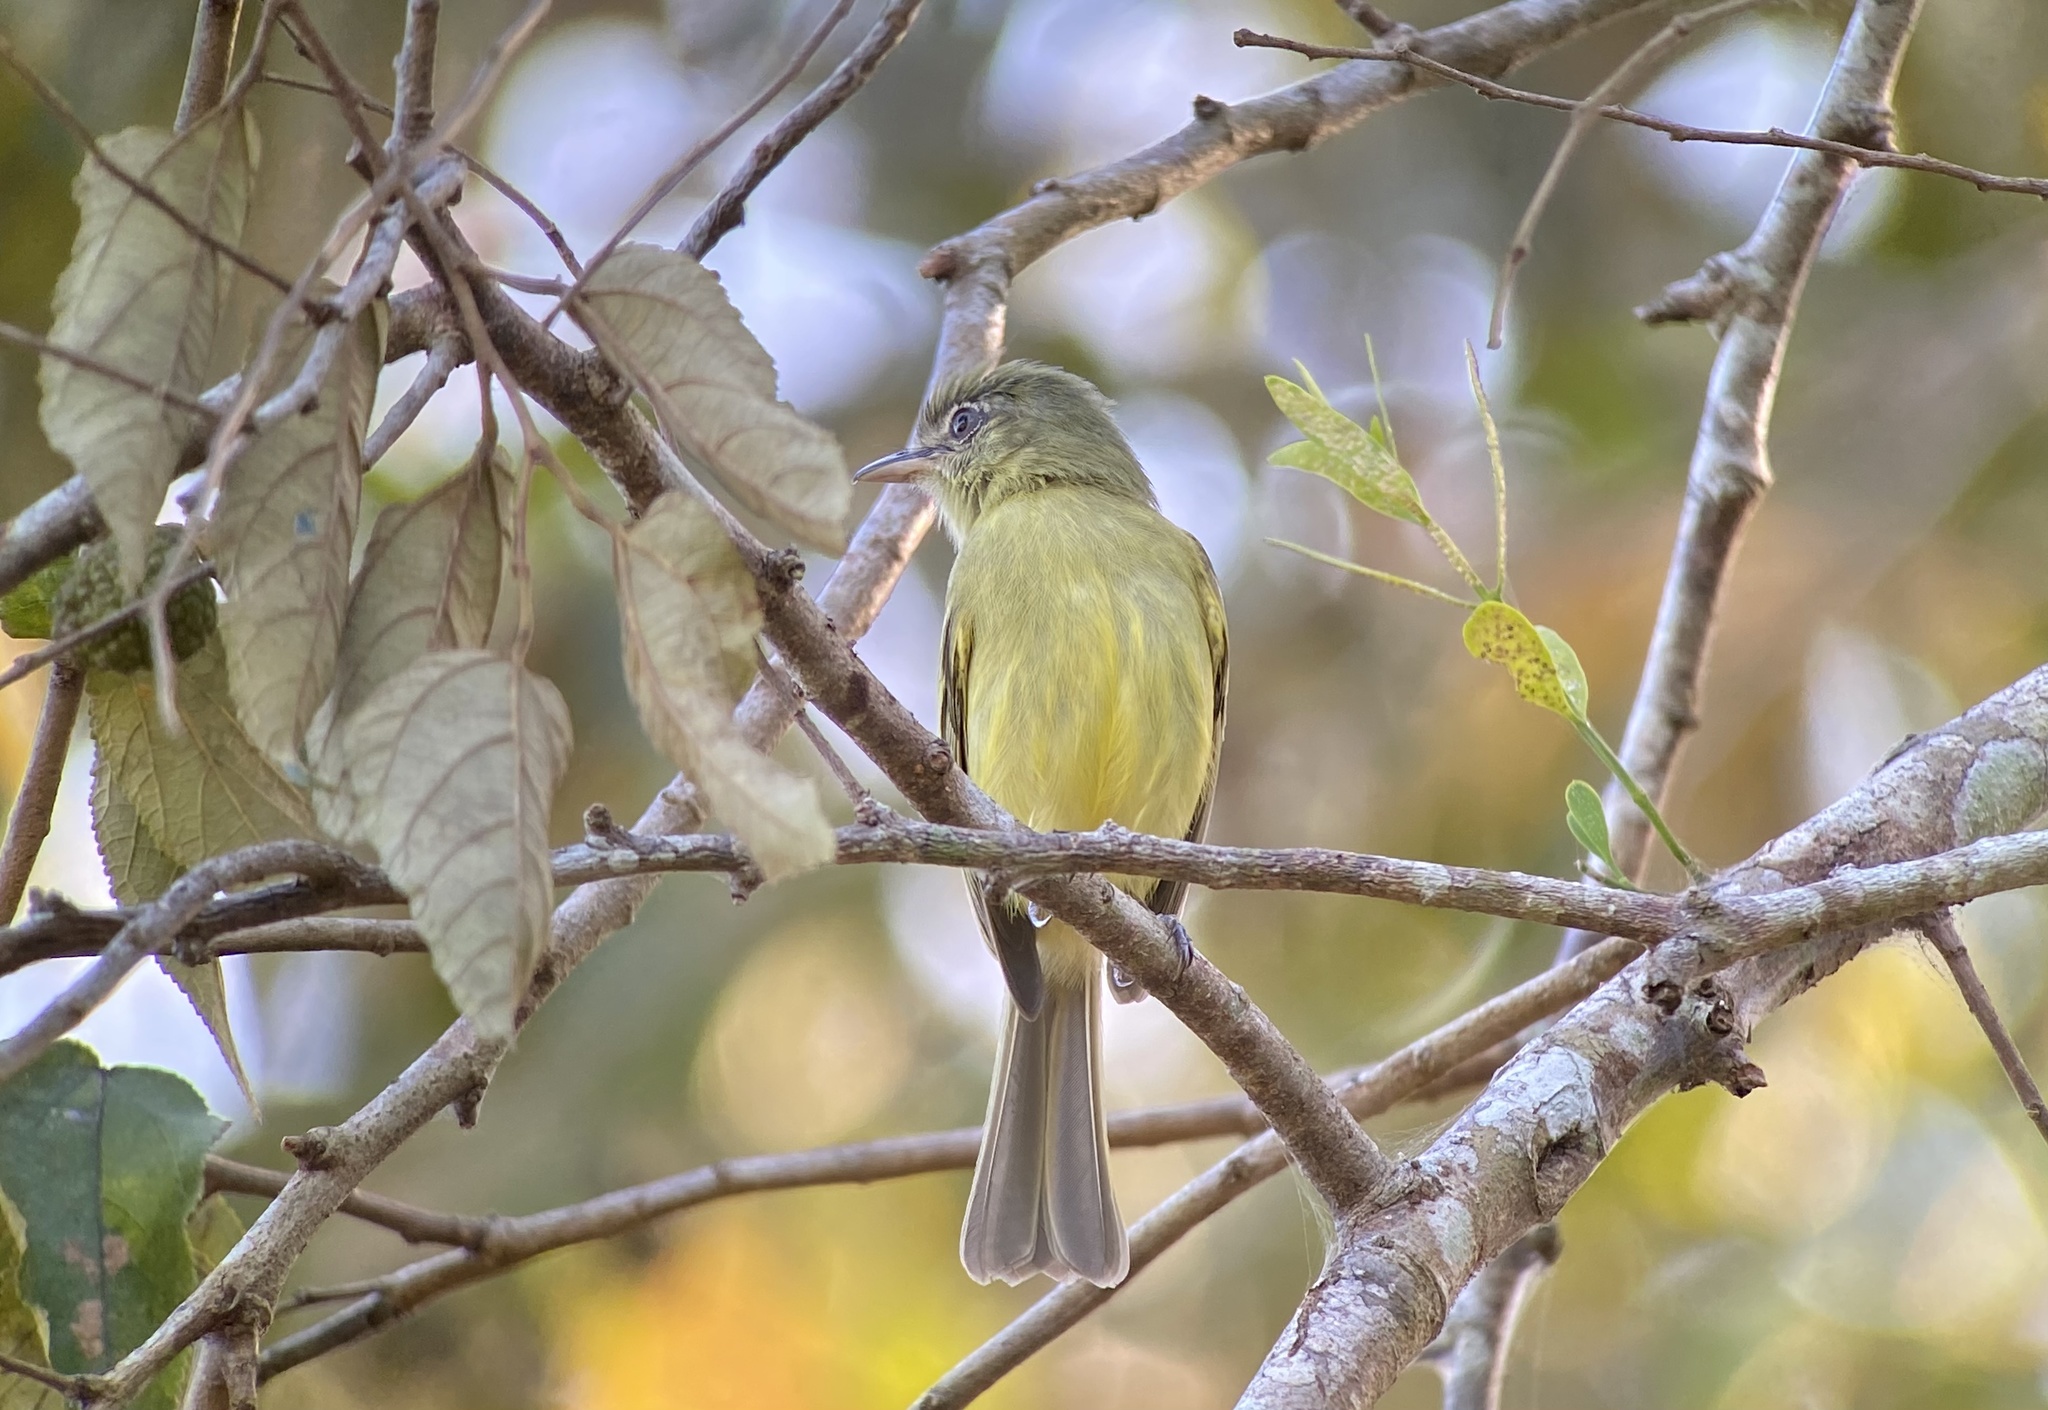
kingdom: Animalia
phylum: Chordata
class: Aves
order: Passeriformes
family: Tyrannidae
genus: Tolmomyias
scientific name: Tolmomyias sulphurescens
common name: Yellow-olive flycatcher
